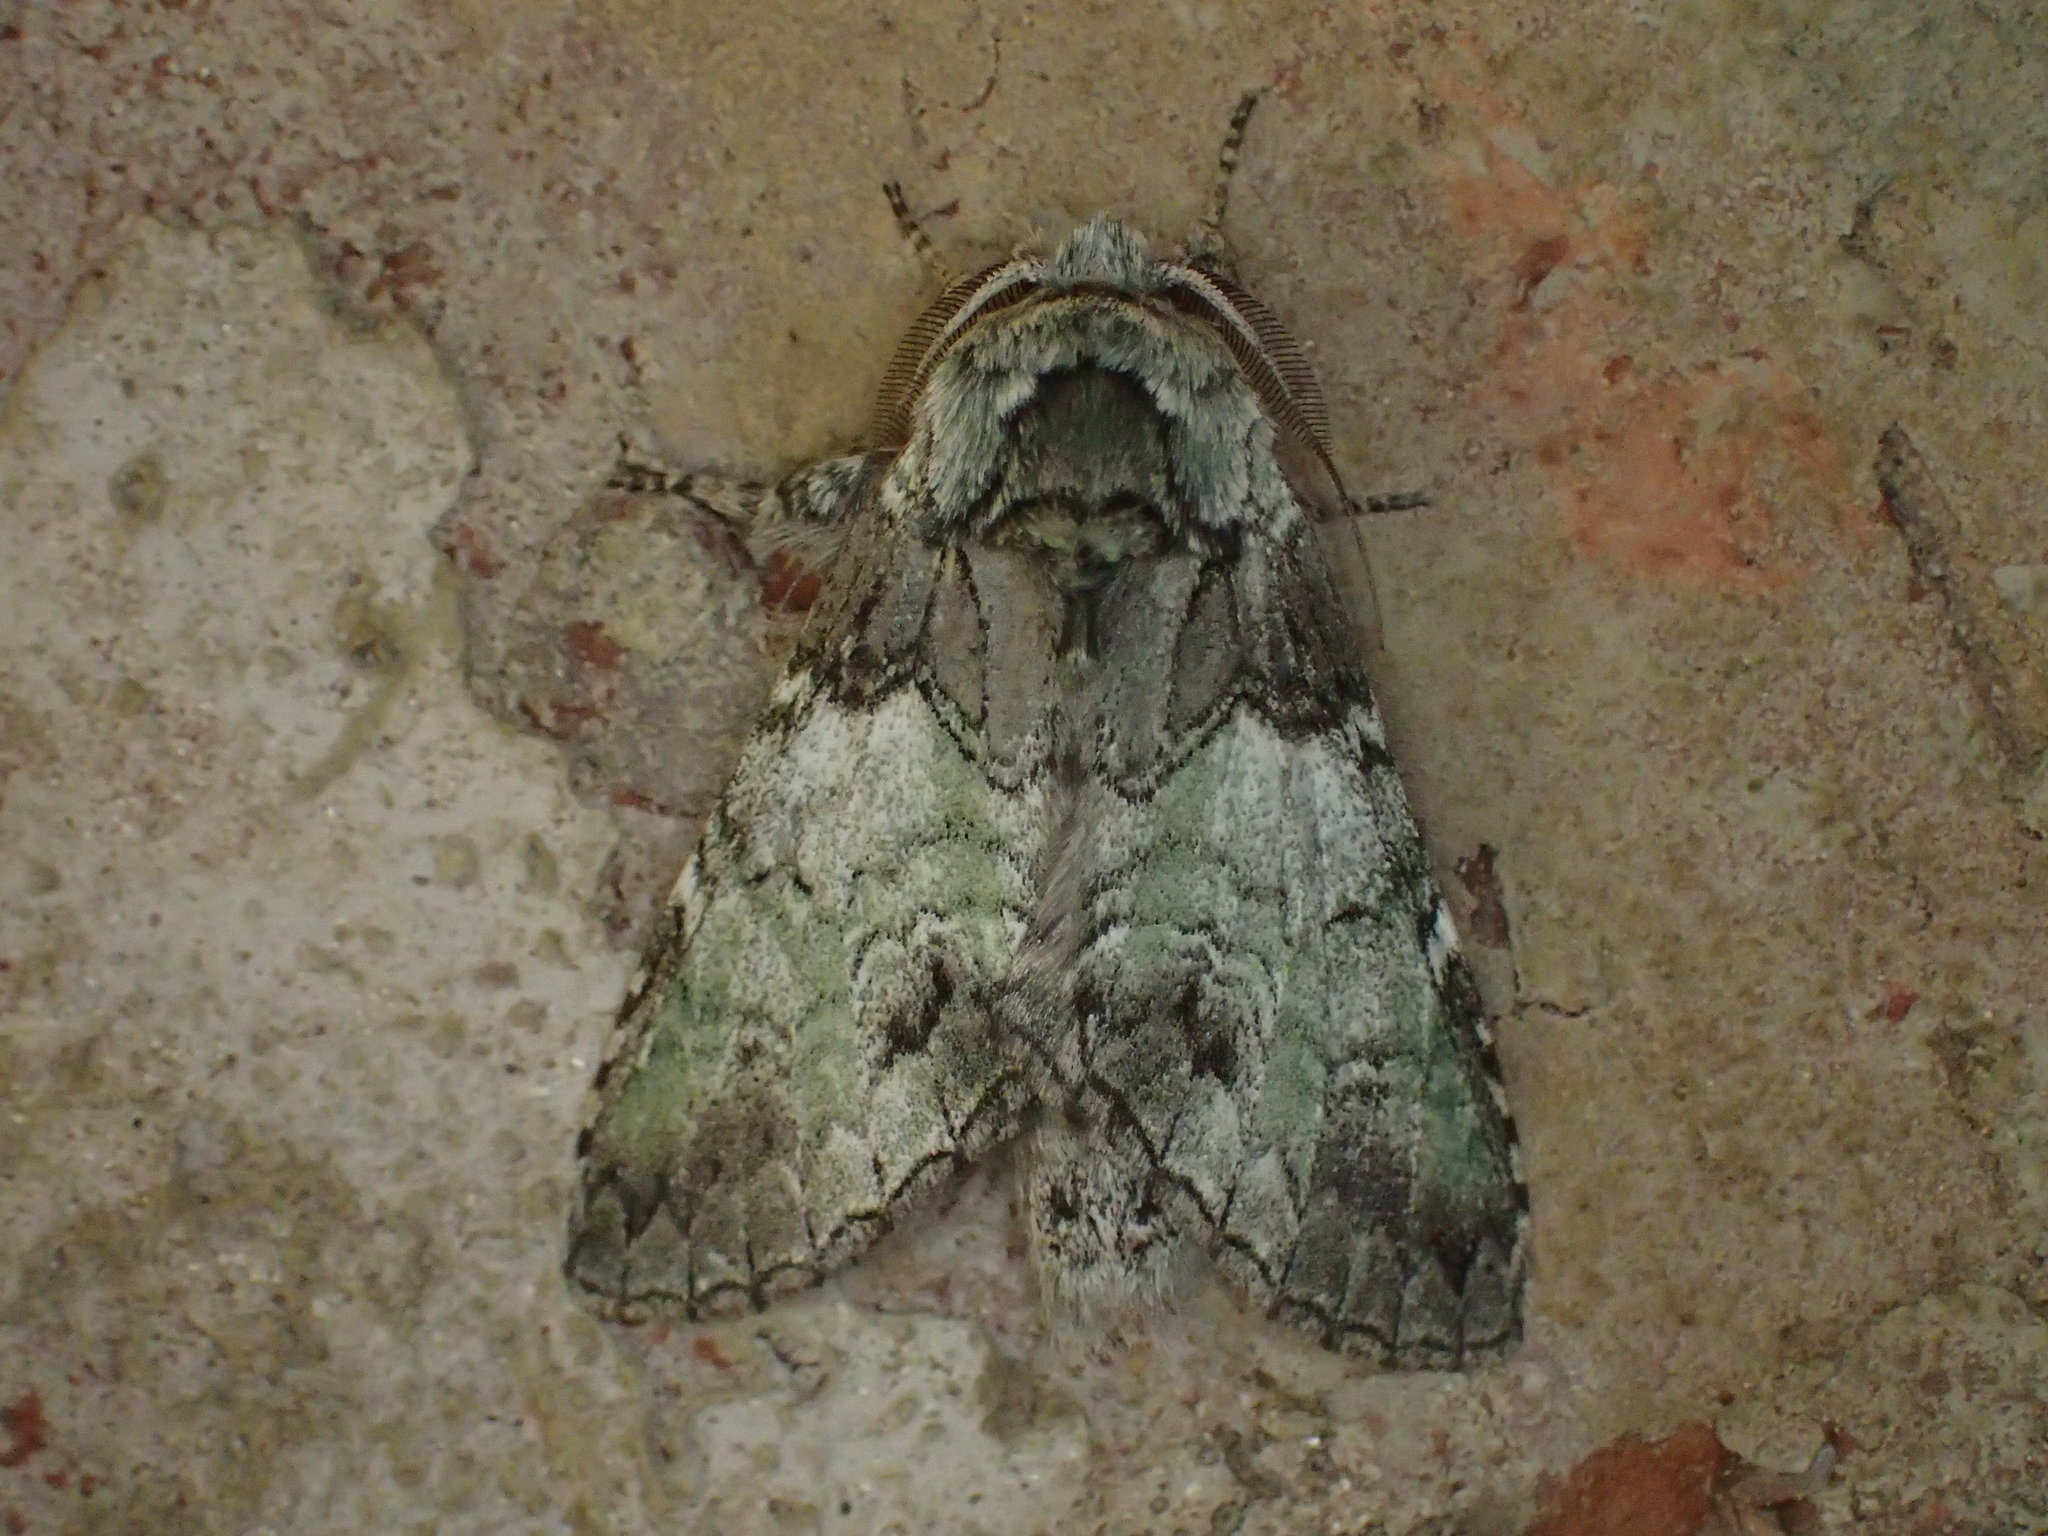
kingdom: Animalia
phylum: Arthropoda
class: Insecta
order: Lepidoptera
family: Notodontidae
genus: Macrurocampa
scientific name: Macrurocampa marthesia
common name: Mottled prominent
